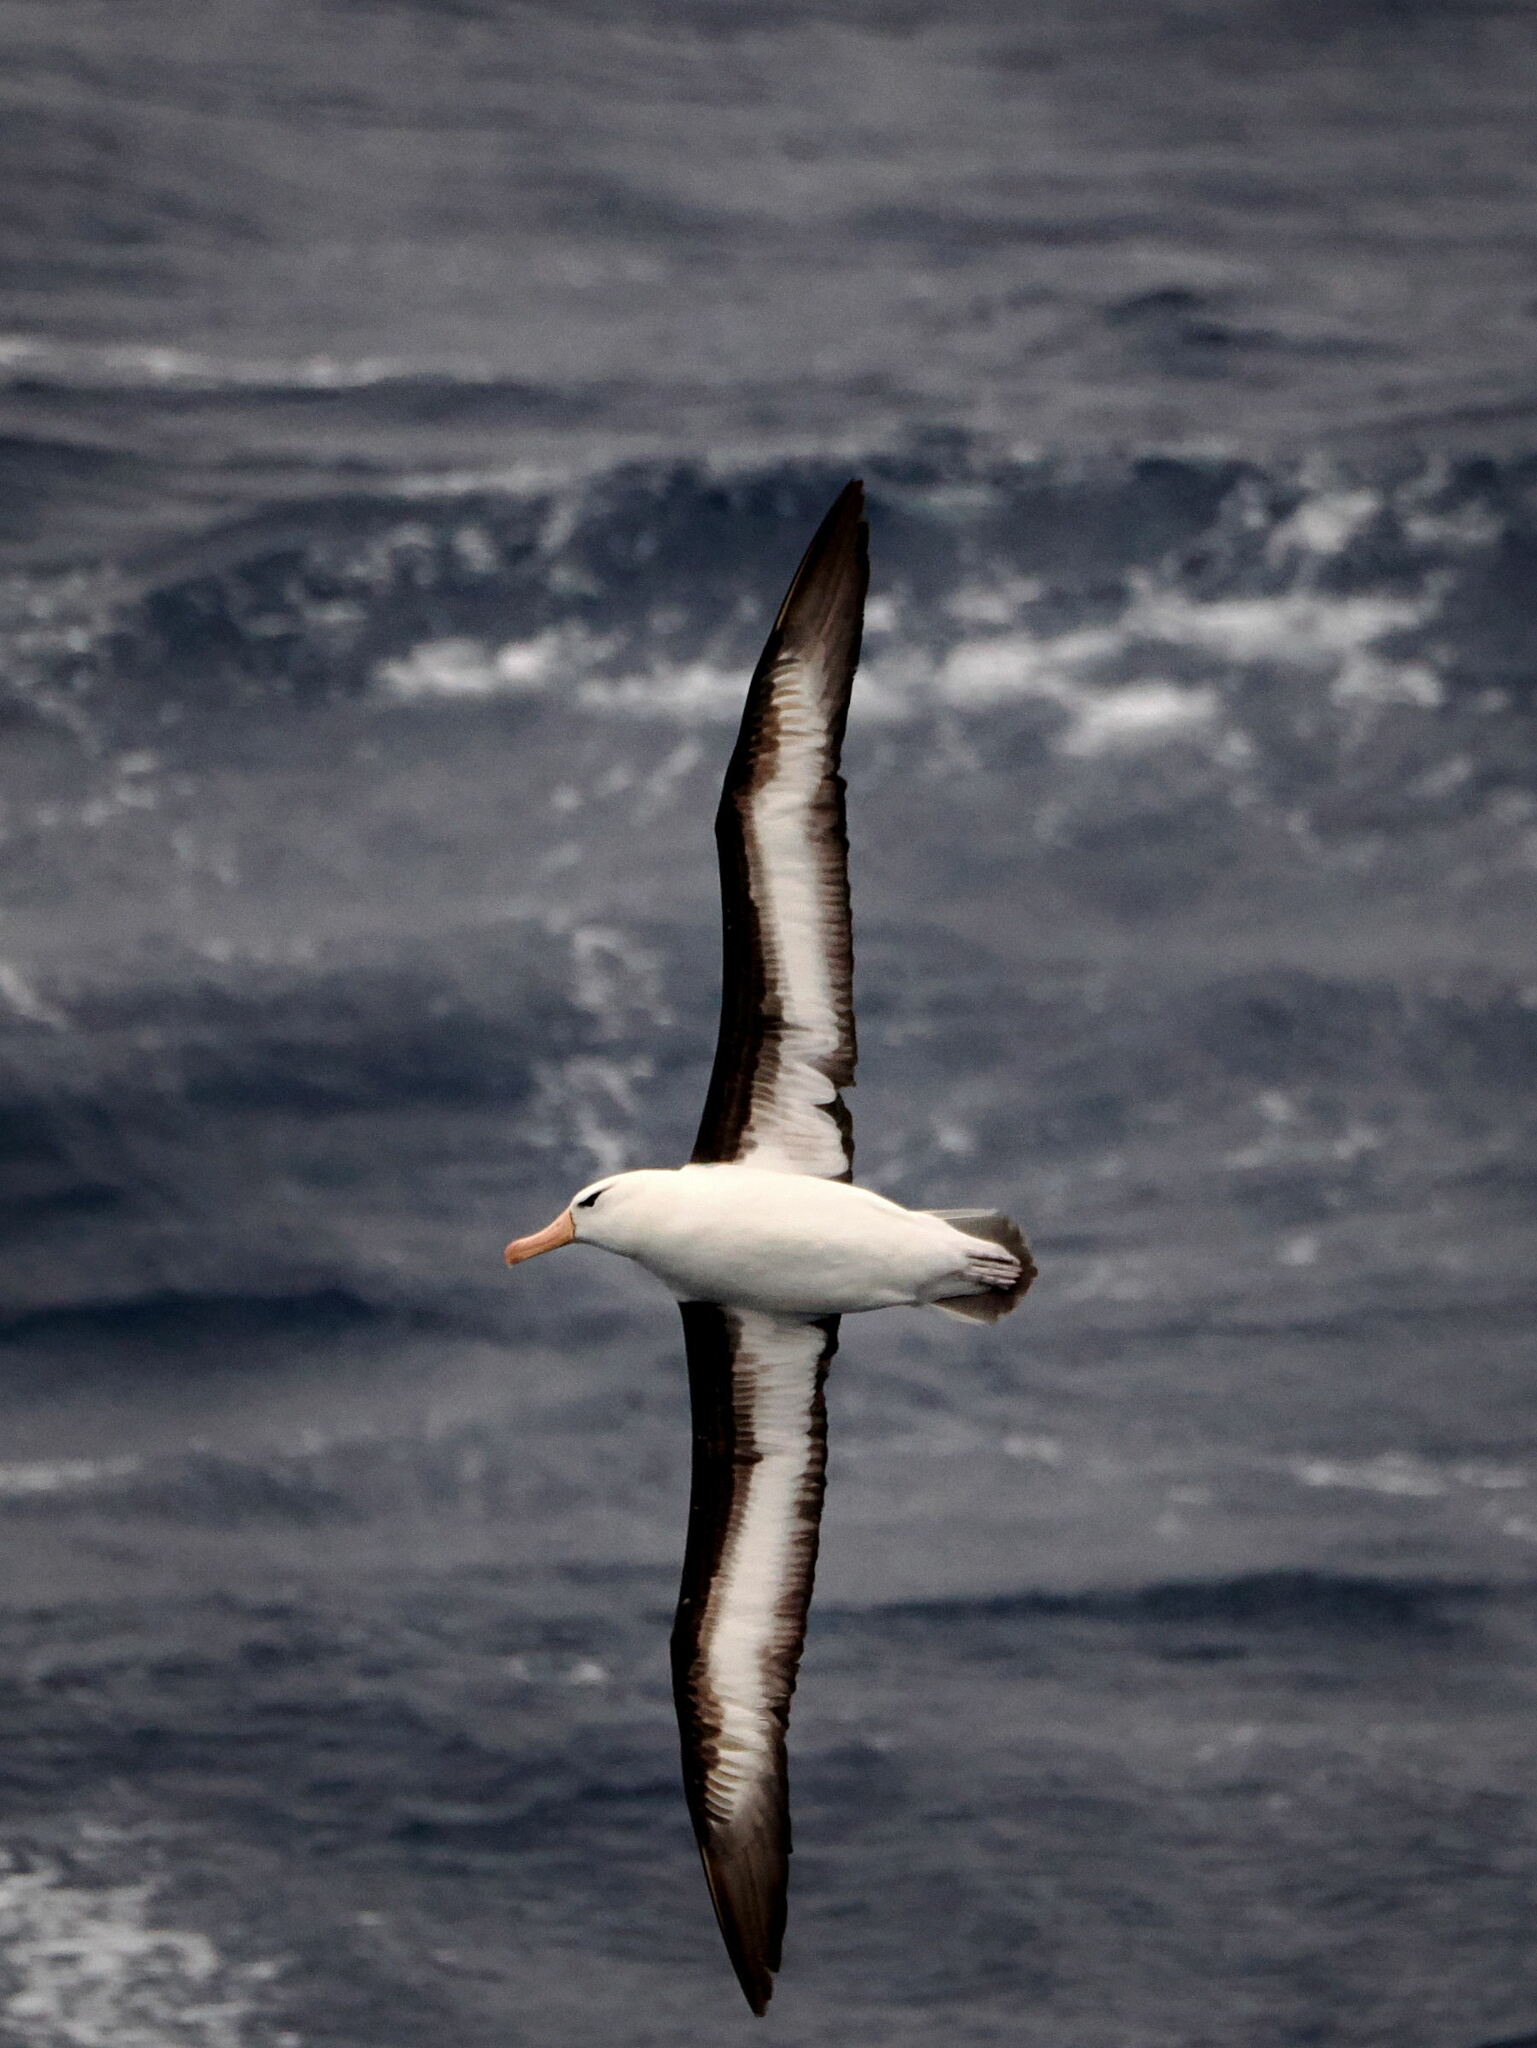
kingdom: Animalia
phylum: Chordata
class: Aves
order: Procellariiformes
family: Diomedeidae
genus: Thalassarche
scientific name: Thalassarche melanophris
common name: Black-browed albatross
